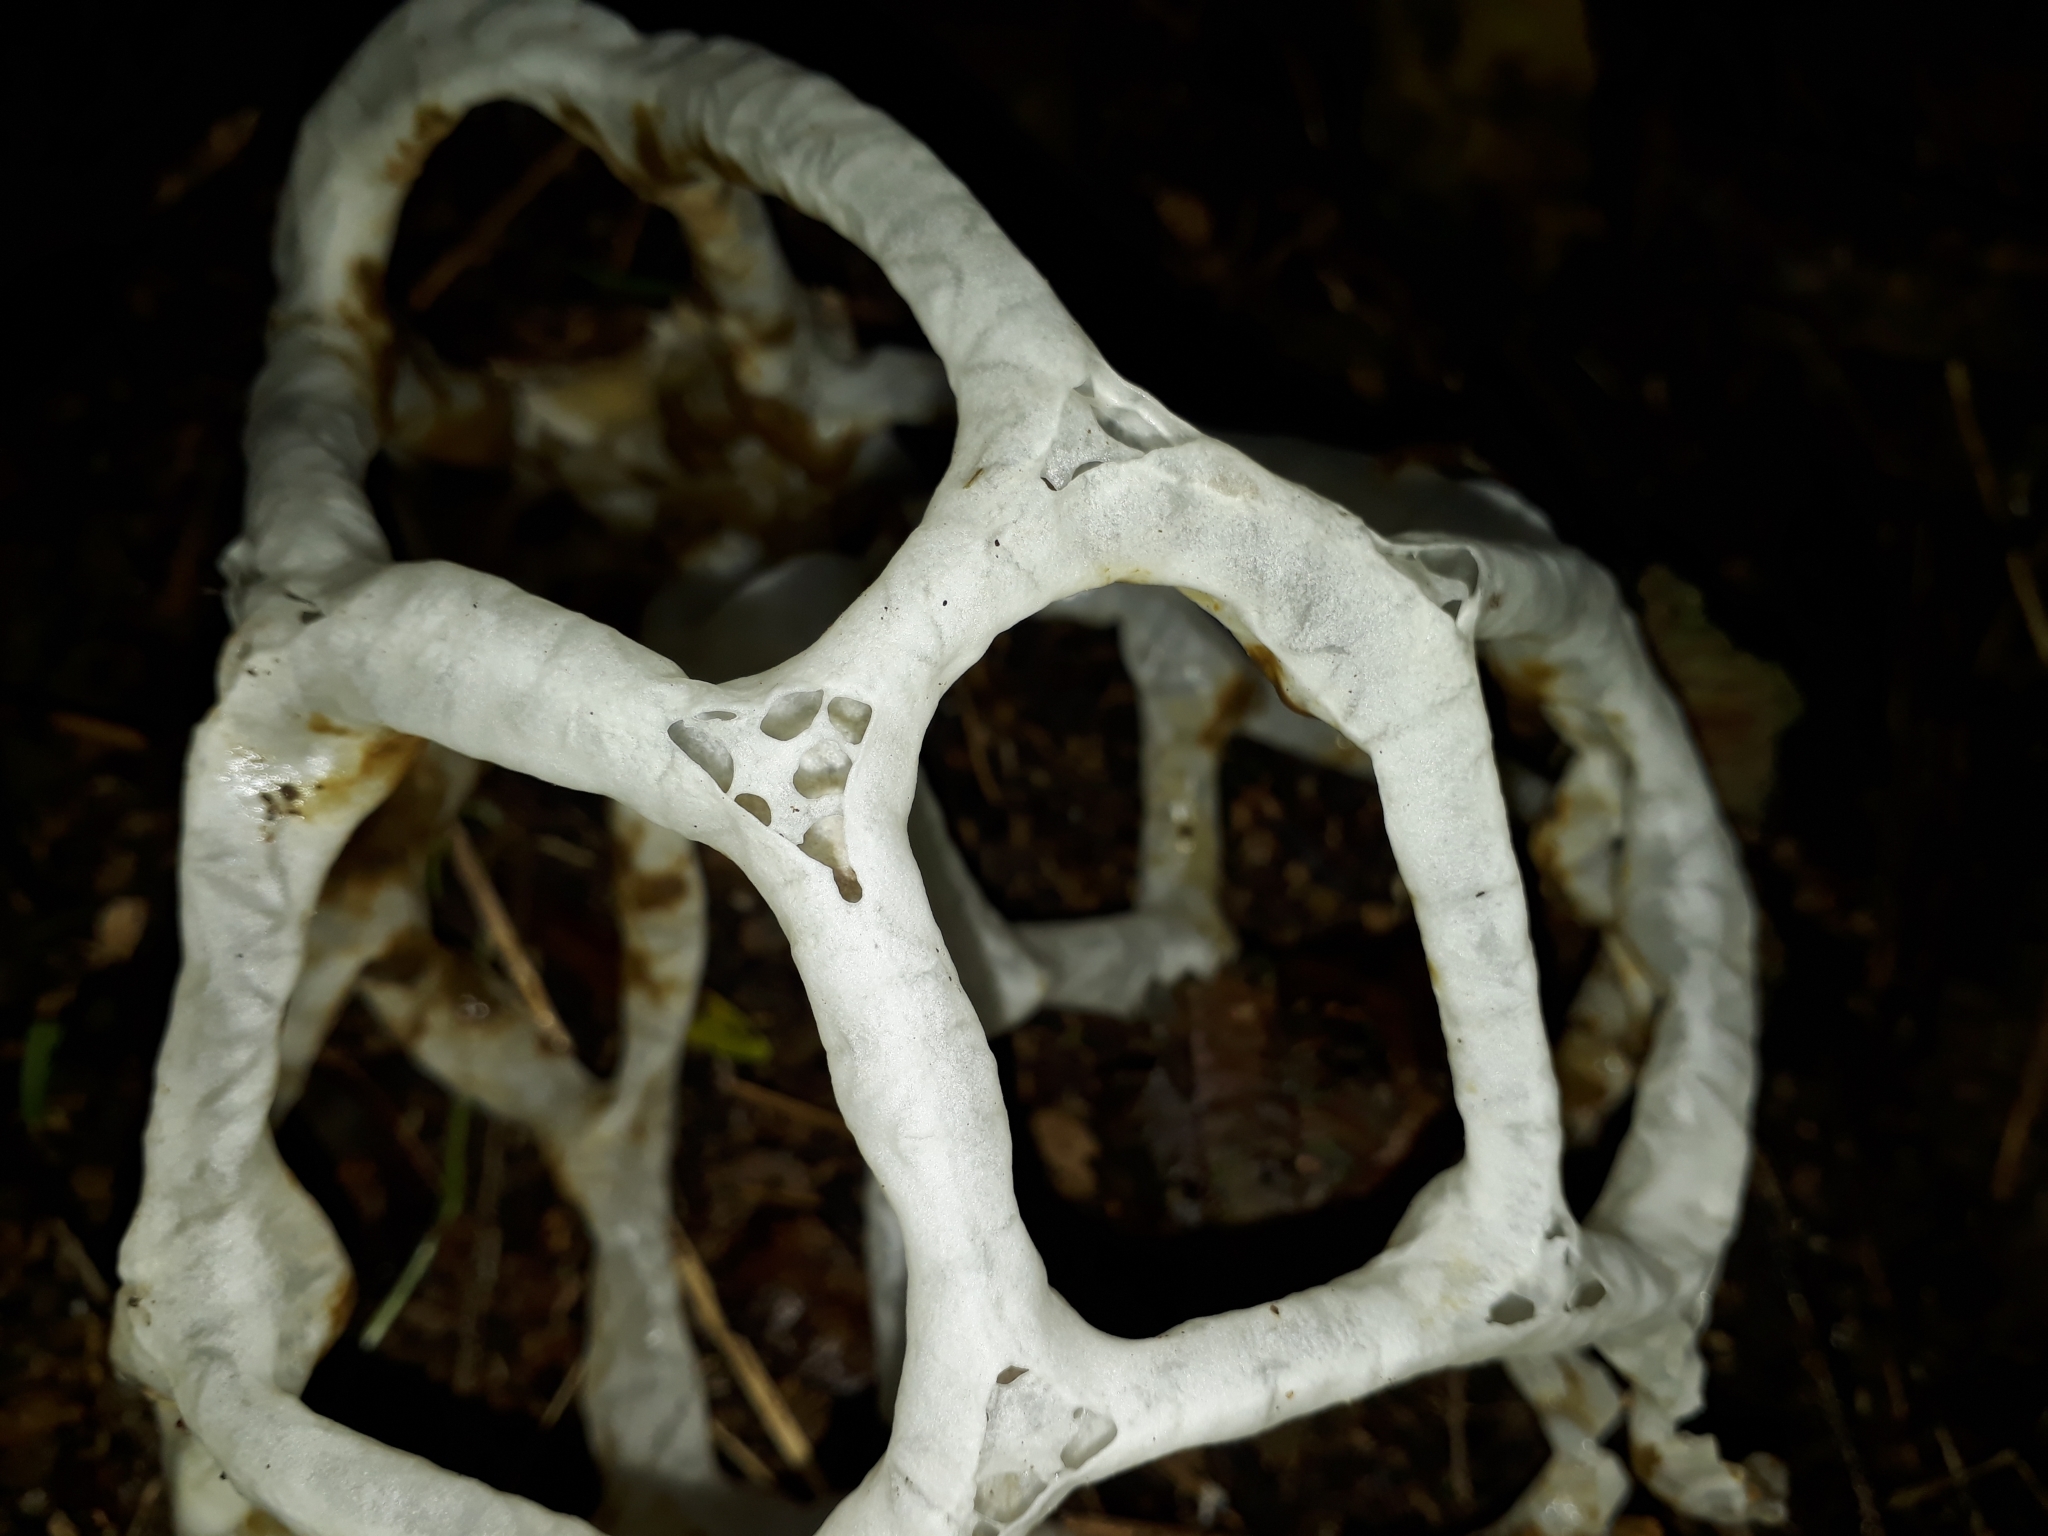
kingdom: Fungi
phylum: Basidiomycota
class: Agaricomycetes
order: Phallales
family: Phallaceae
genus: Ileodictyon
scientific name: Ileodictyon cibarium
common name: Basket fungus
